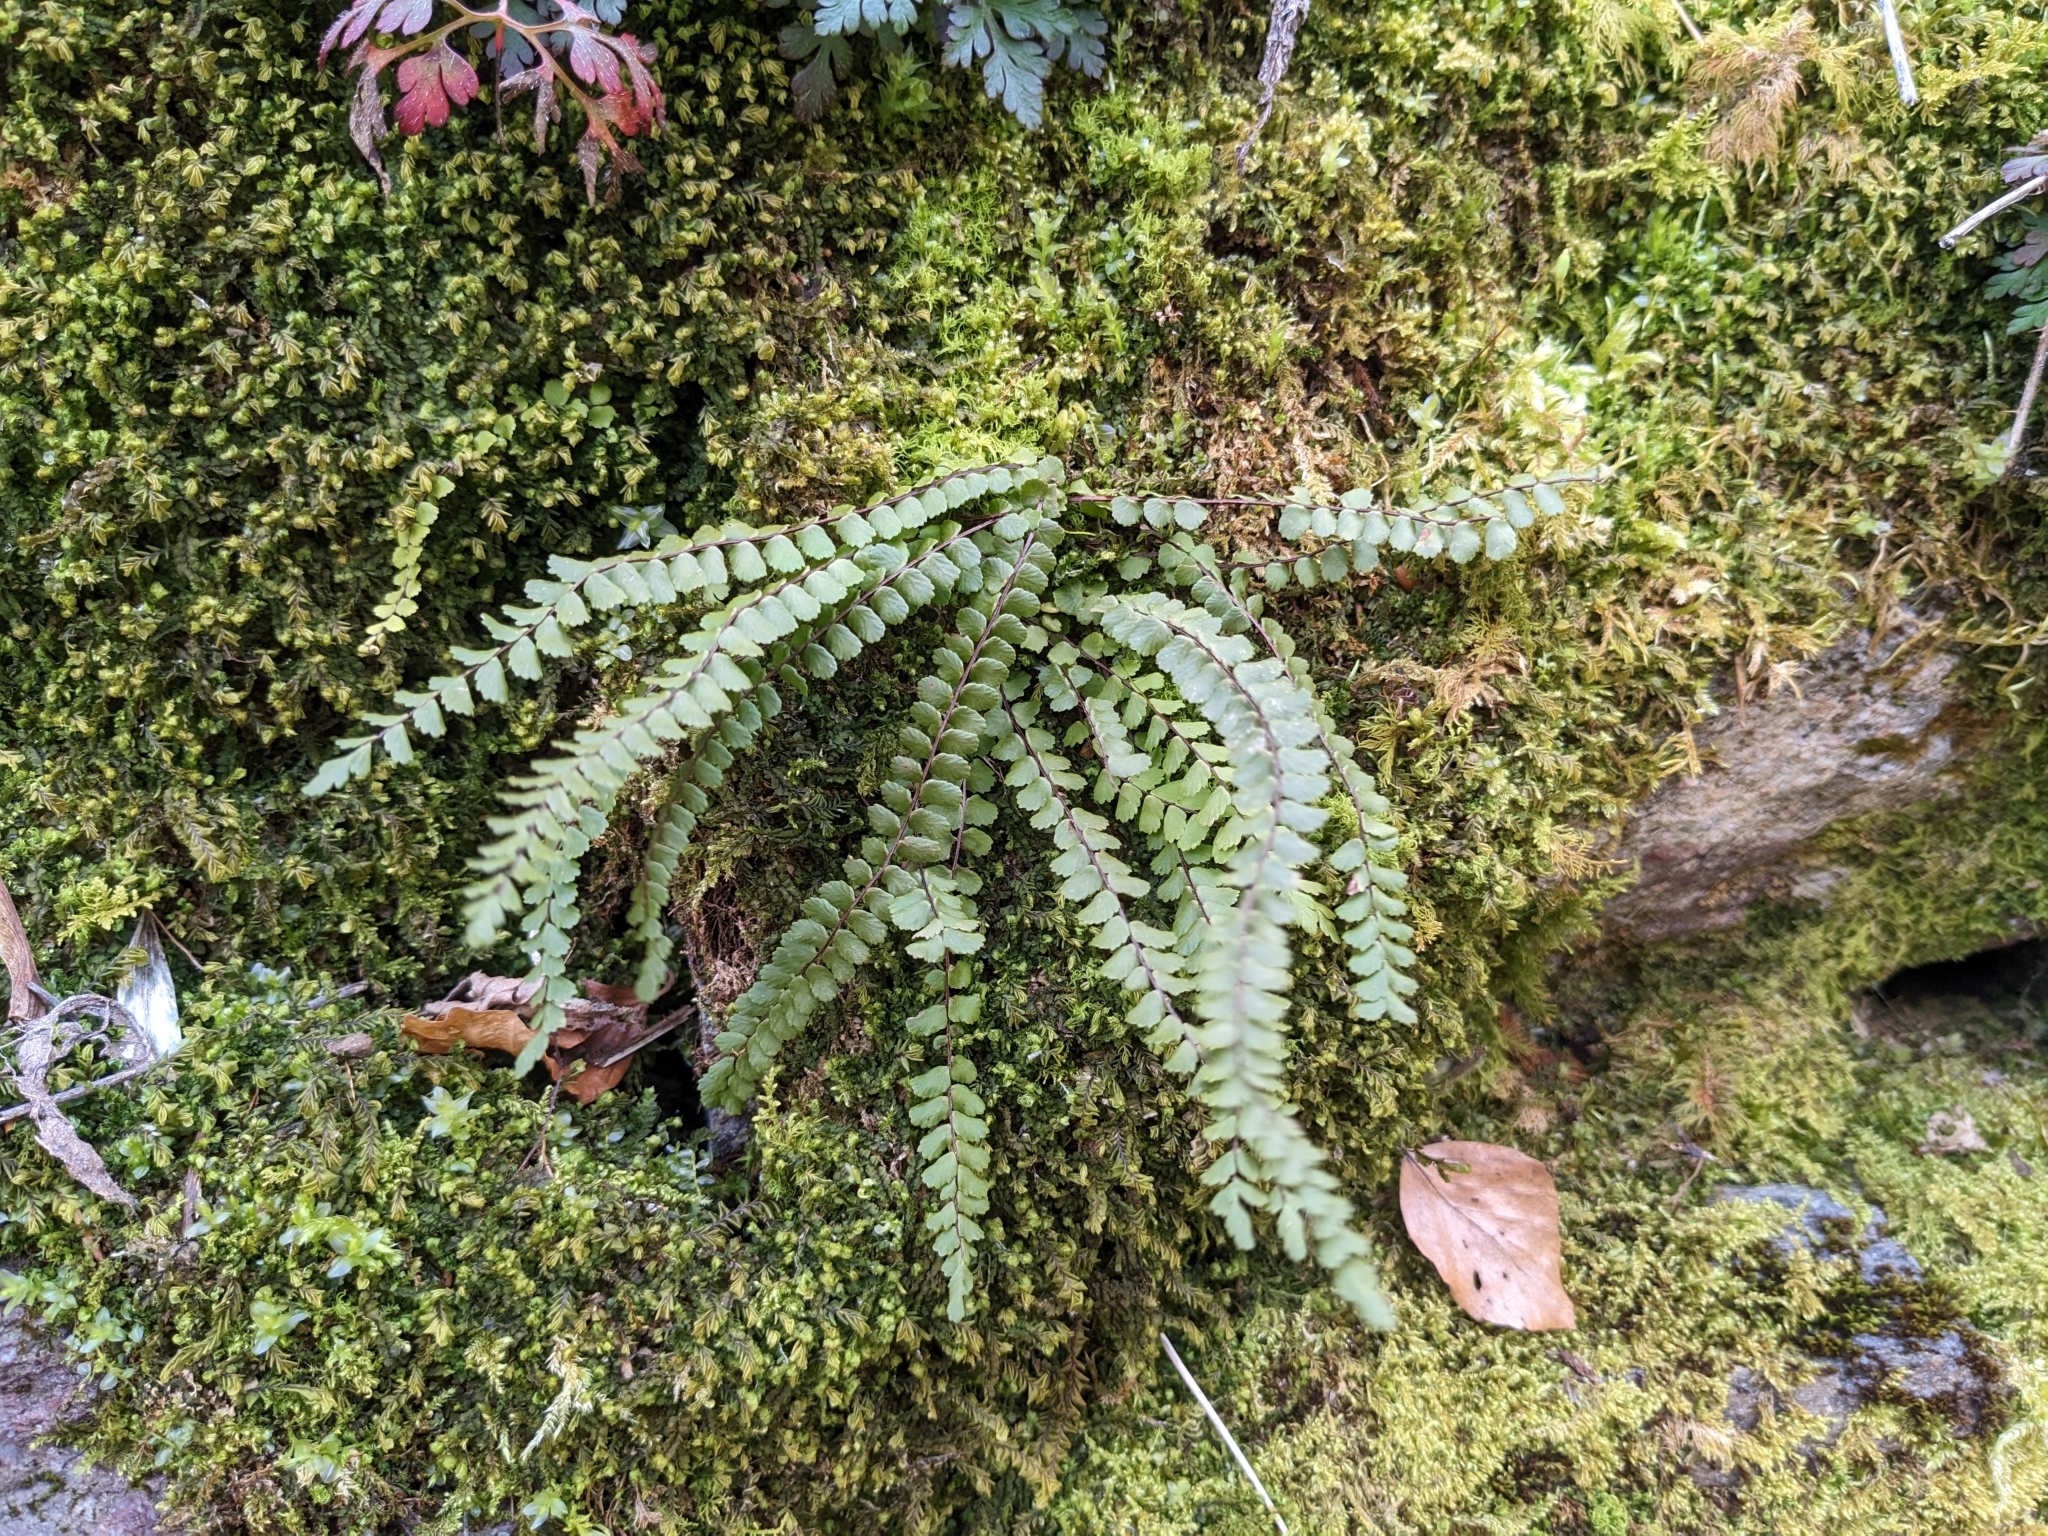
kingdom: Plantae
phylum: Tracheophyta
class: Polypodiopsida
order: Polypodiales
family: Aspleniaceae
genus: Asplenium
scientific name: Asplenium trichomanes
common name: Maidenhair spleenwort
